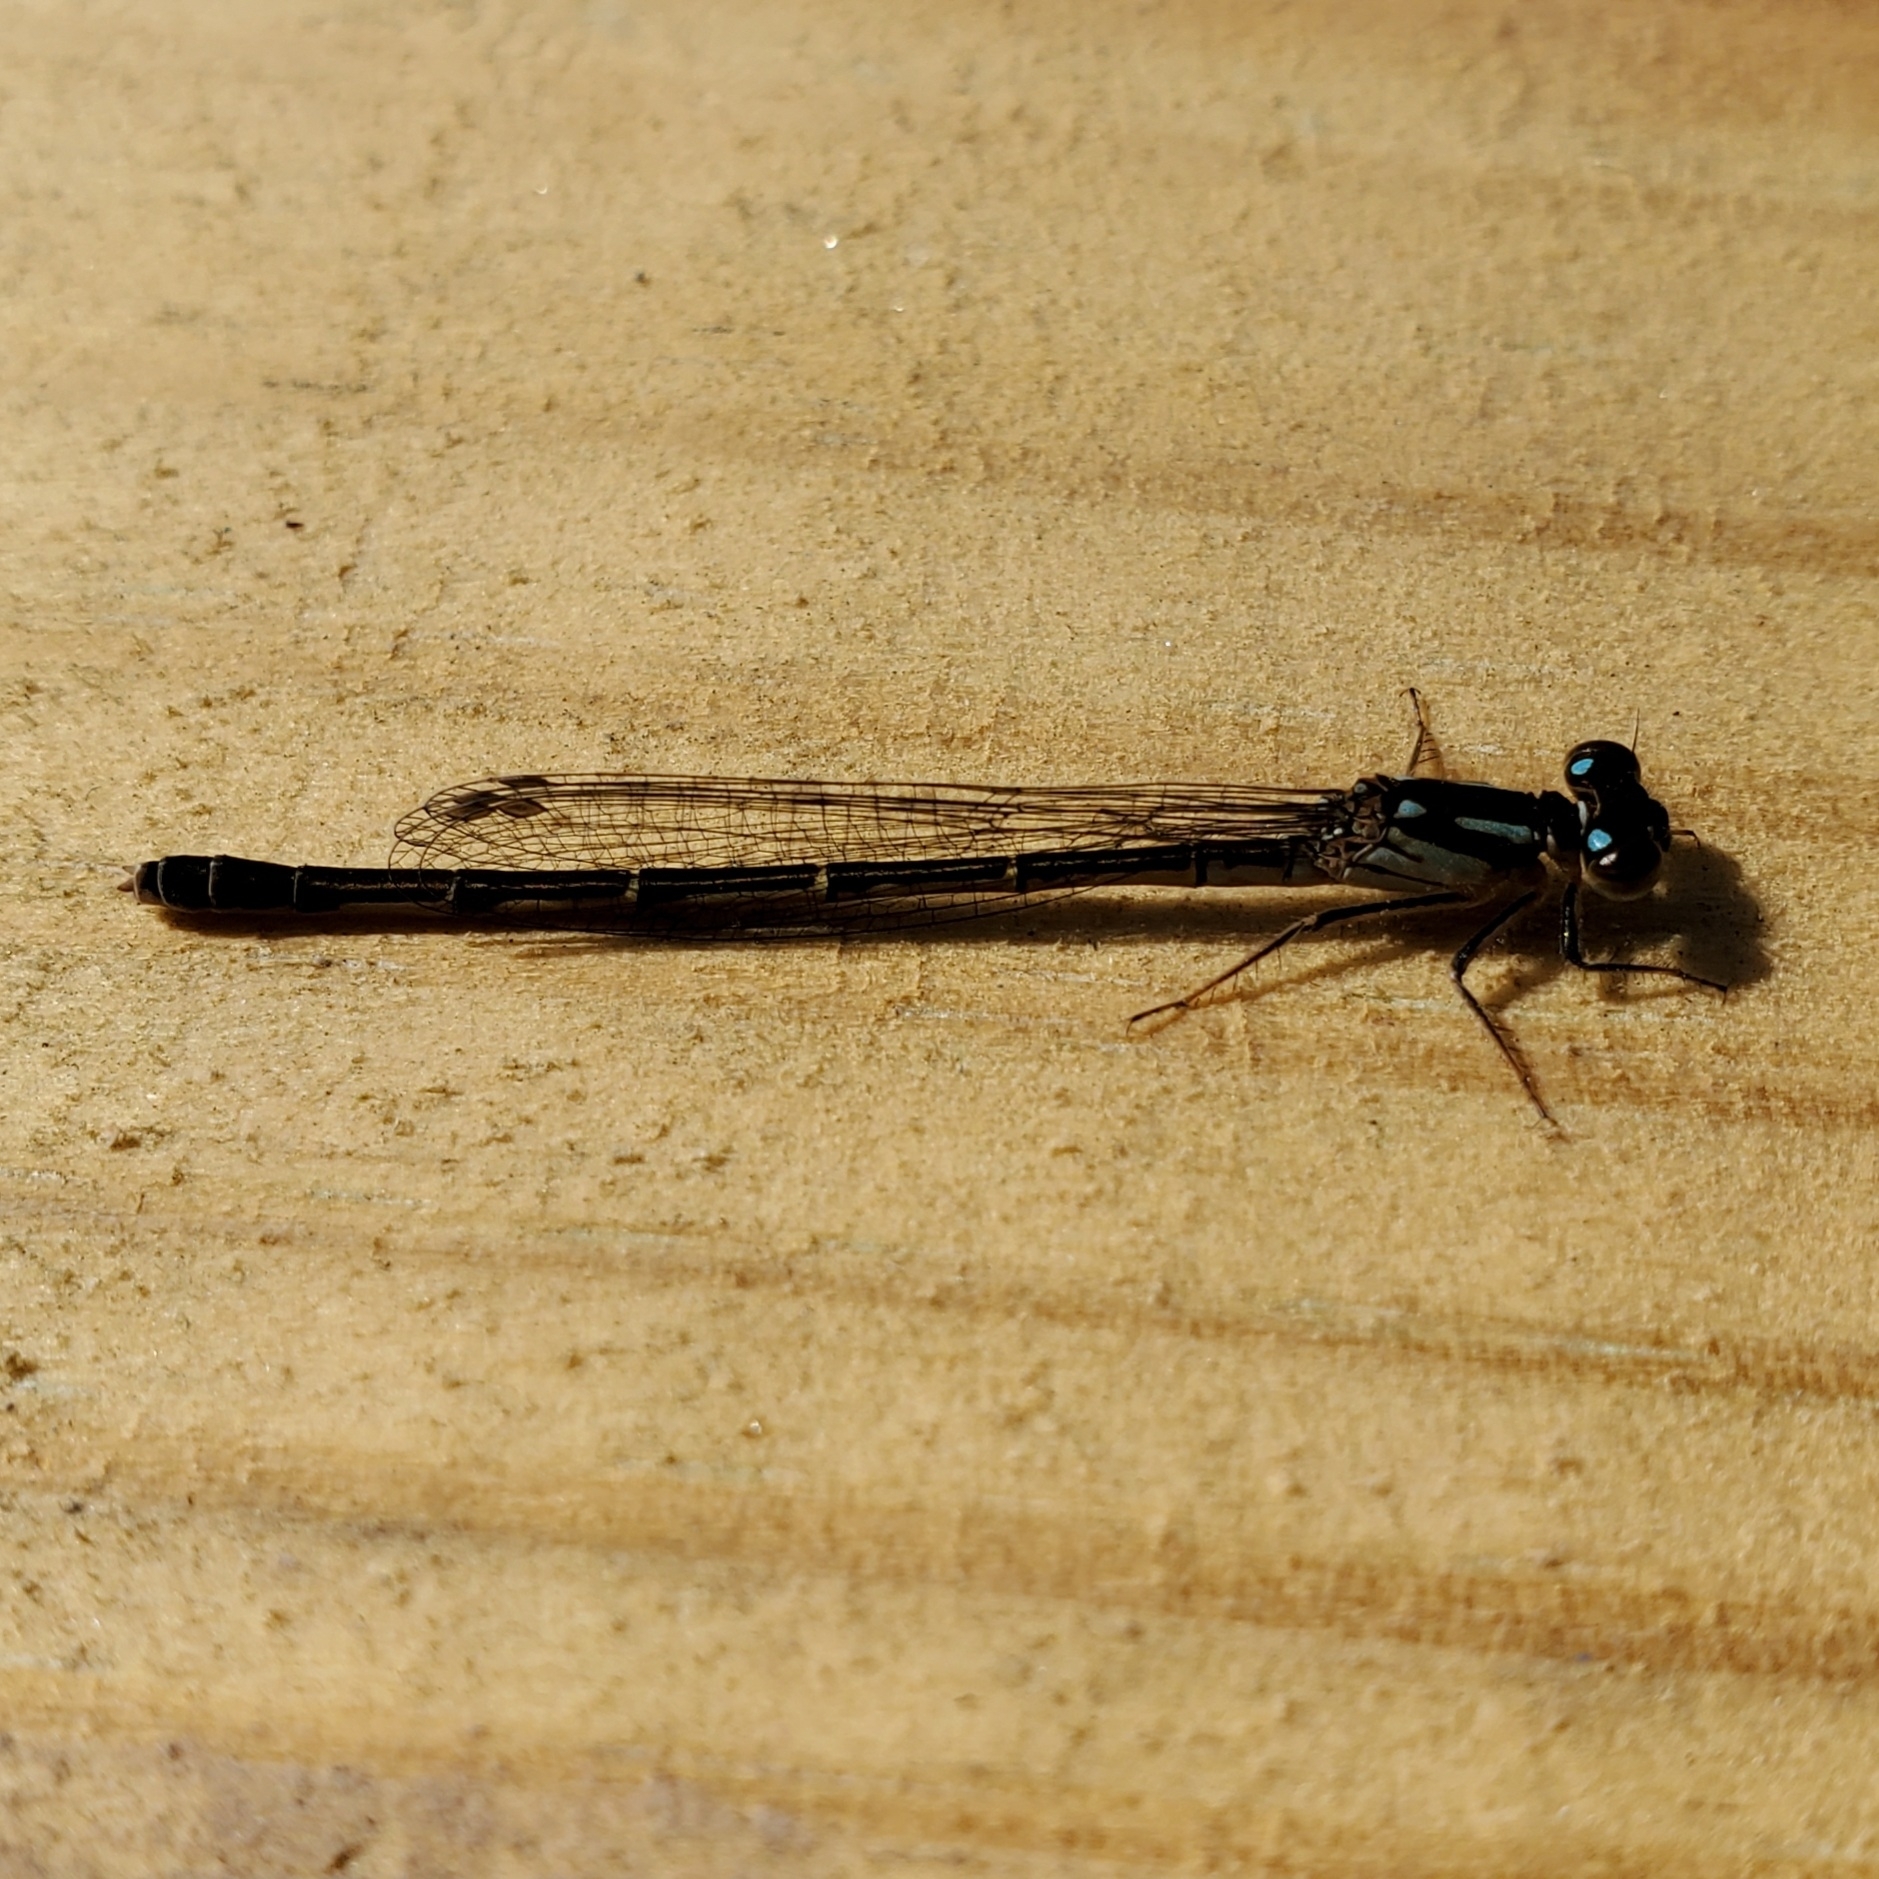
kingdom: Animalia
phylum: Arthropoda
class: Insecta
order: Odonata
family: Coenagrionidae
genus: Ischnura
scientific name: Ischnura posita
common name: Fragile forktail
